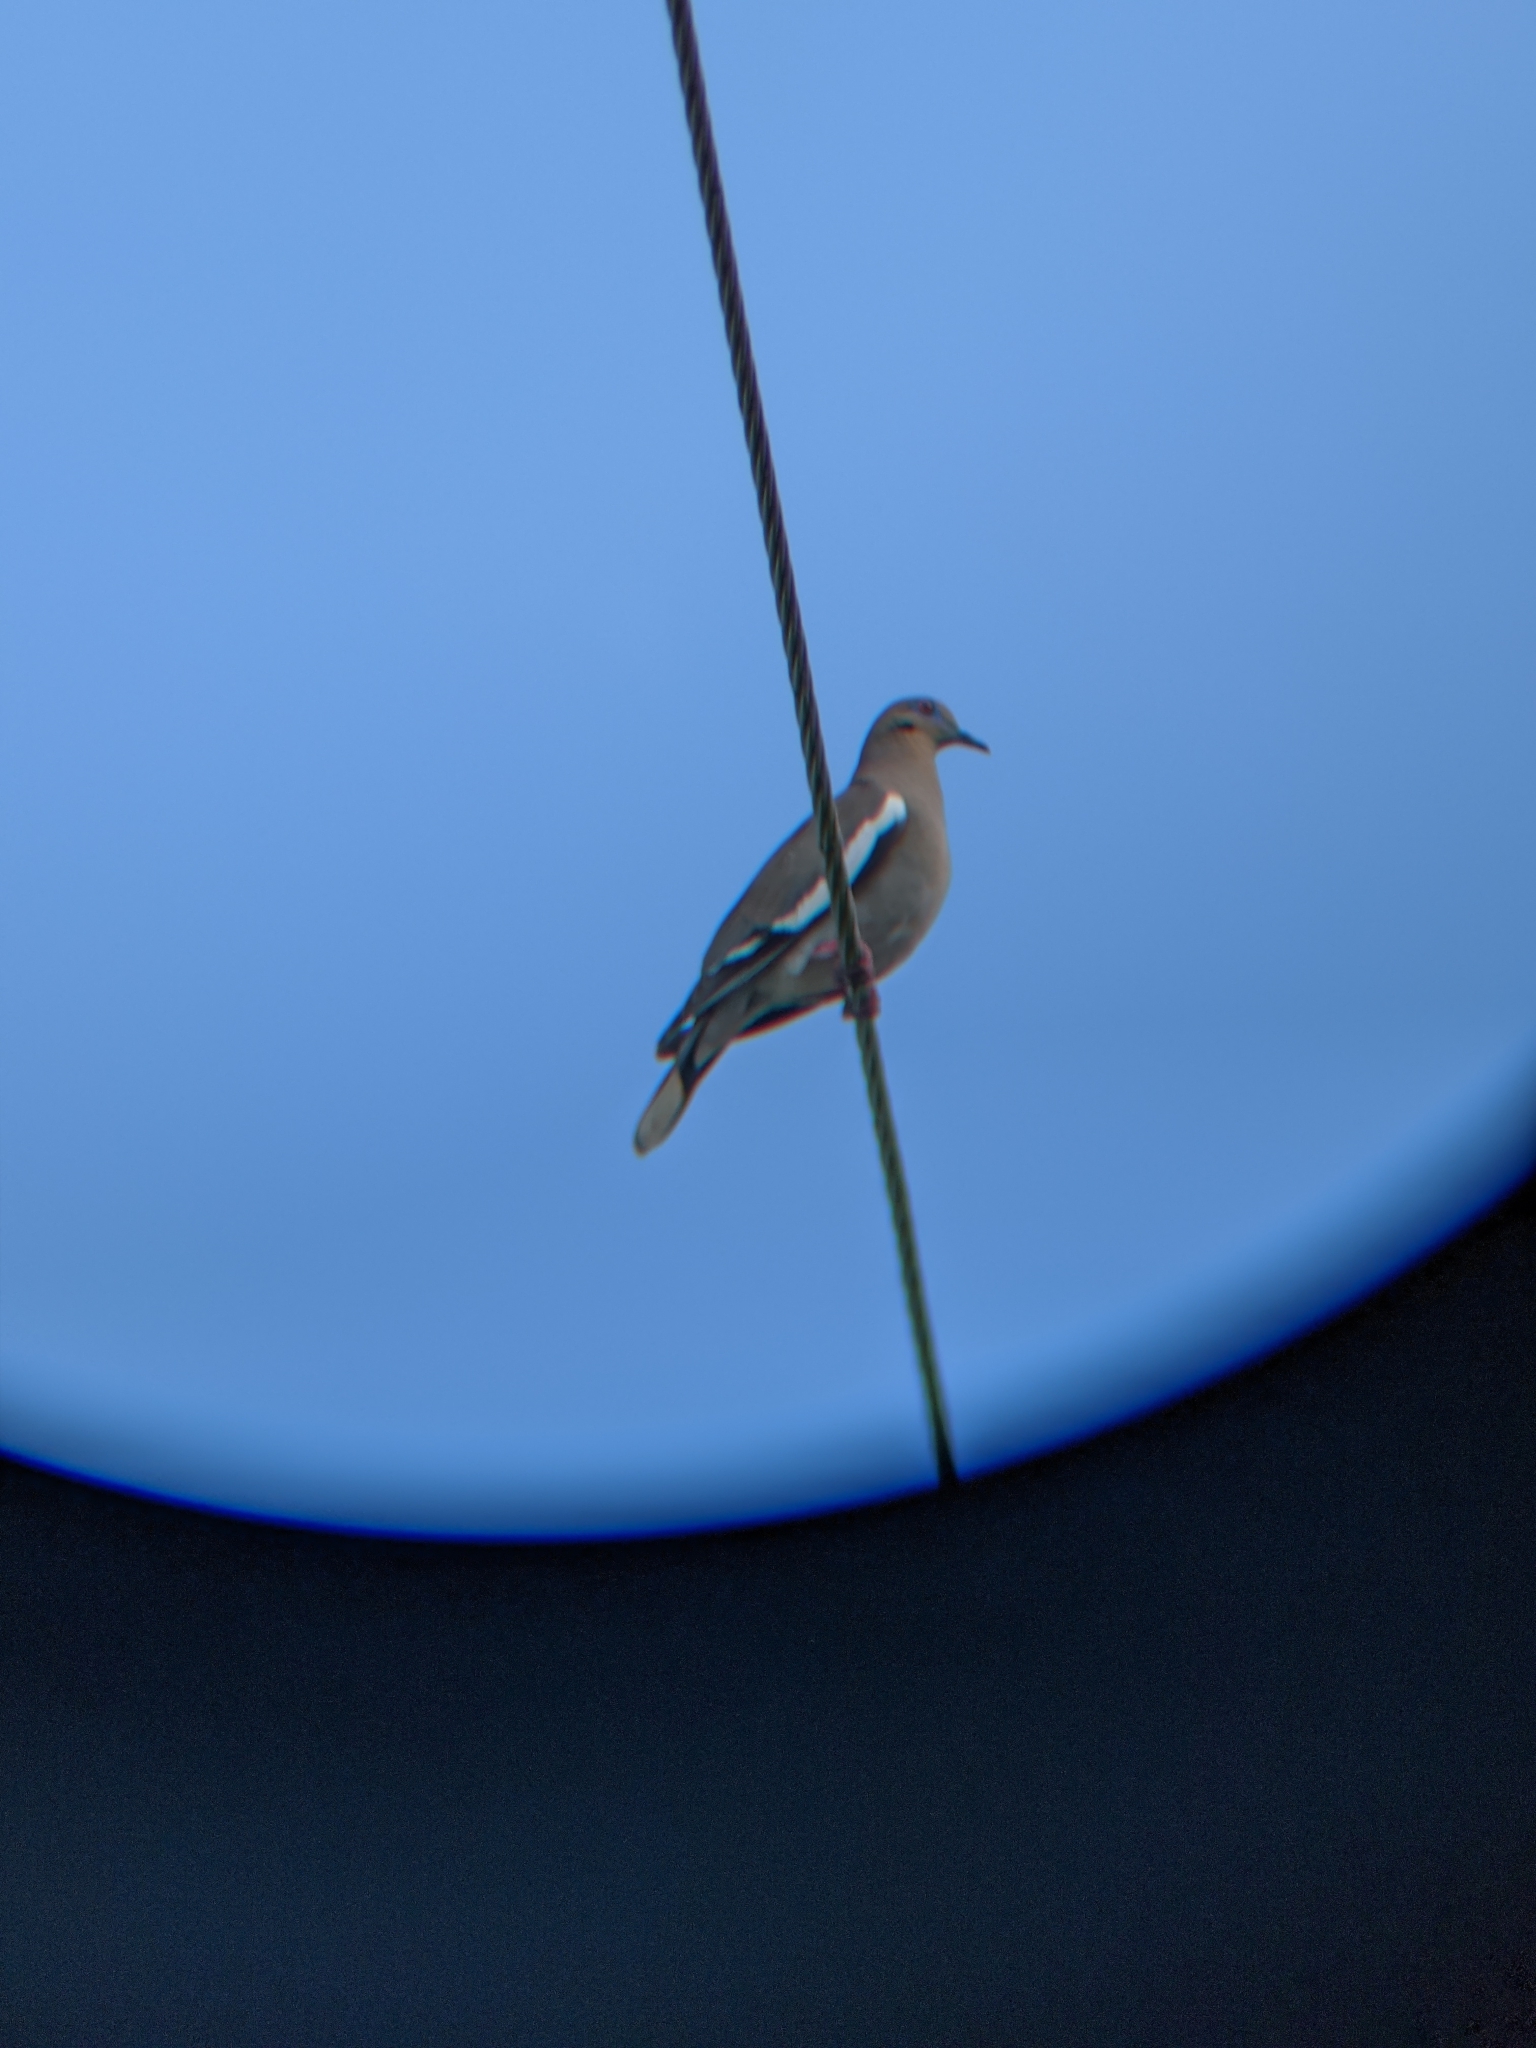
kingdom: Animalia
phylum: Chordata
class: Aves
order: Columbiformes
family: Columbidae
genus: Zenaida
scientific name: Zenaida asiatica
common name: White-winged dove
